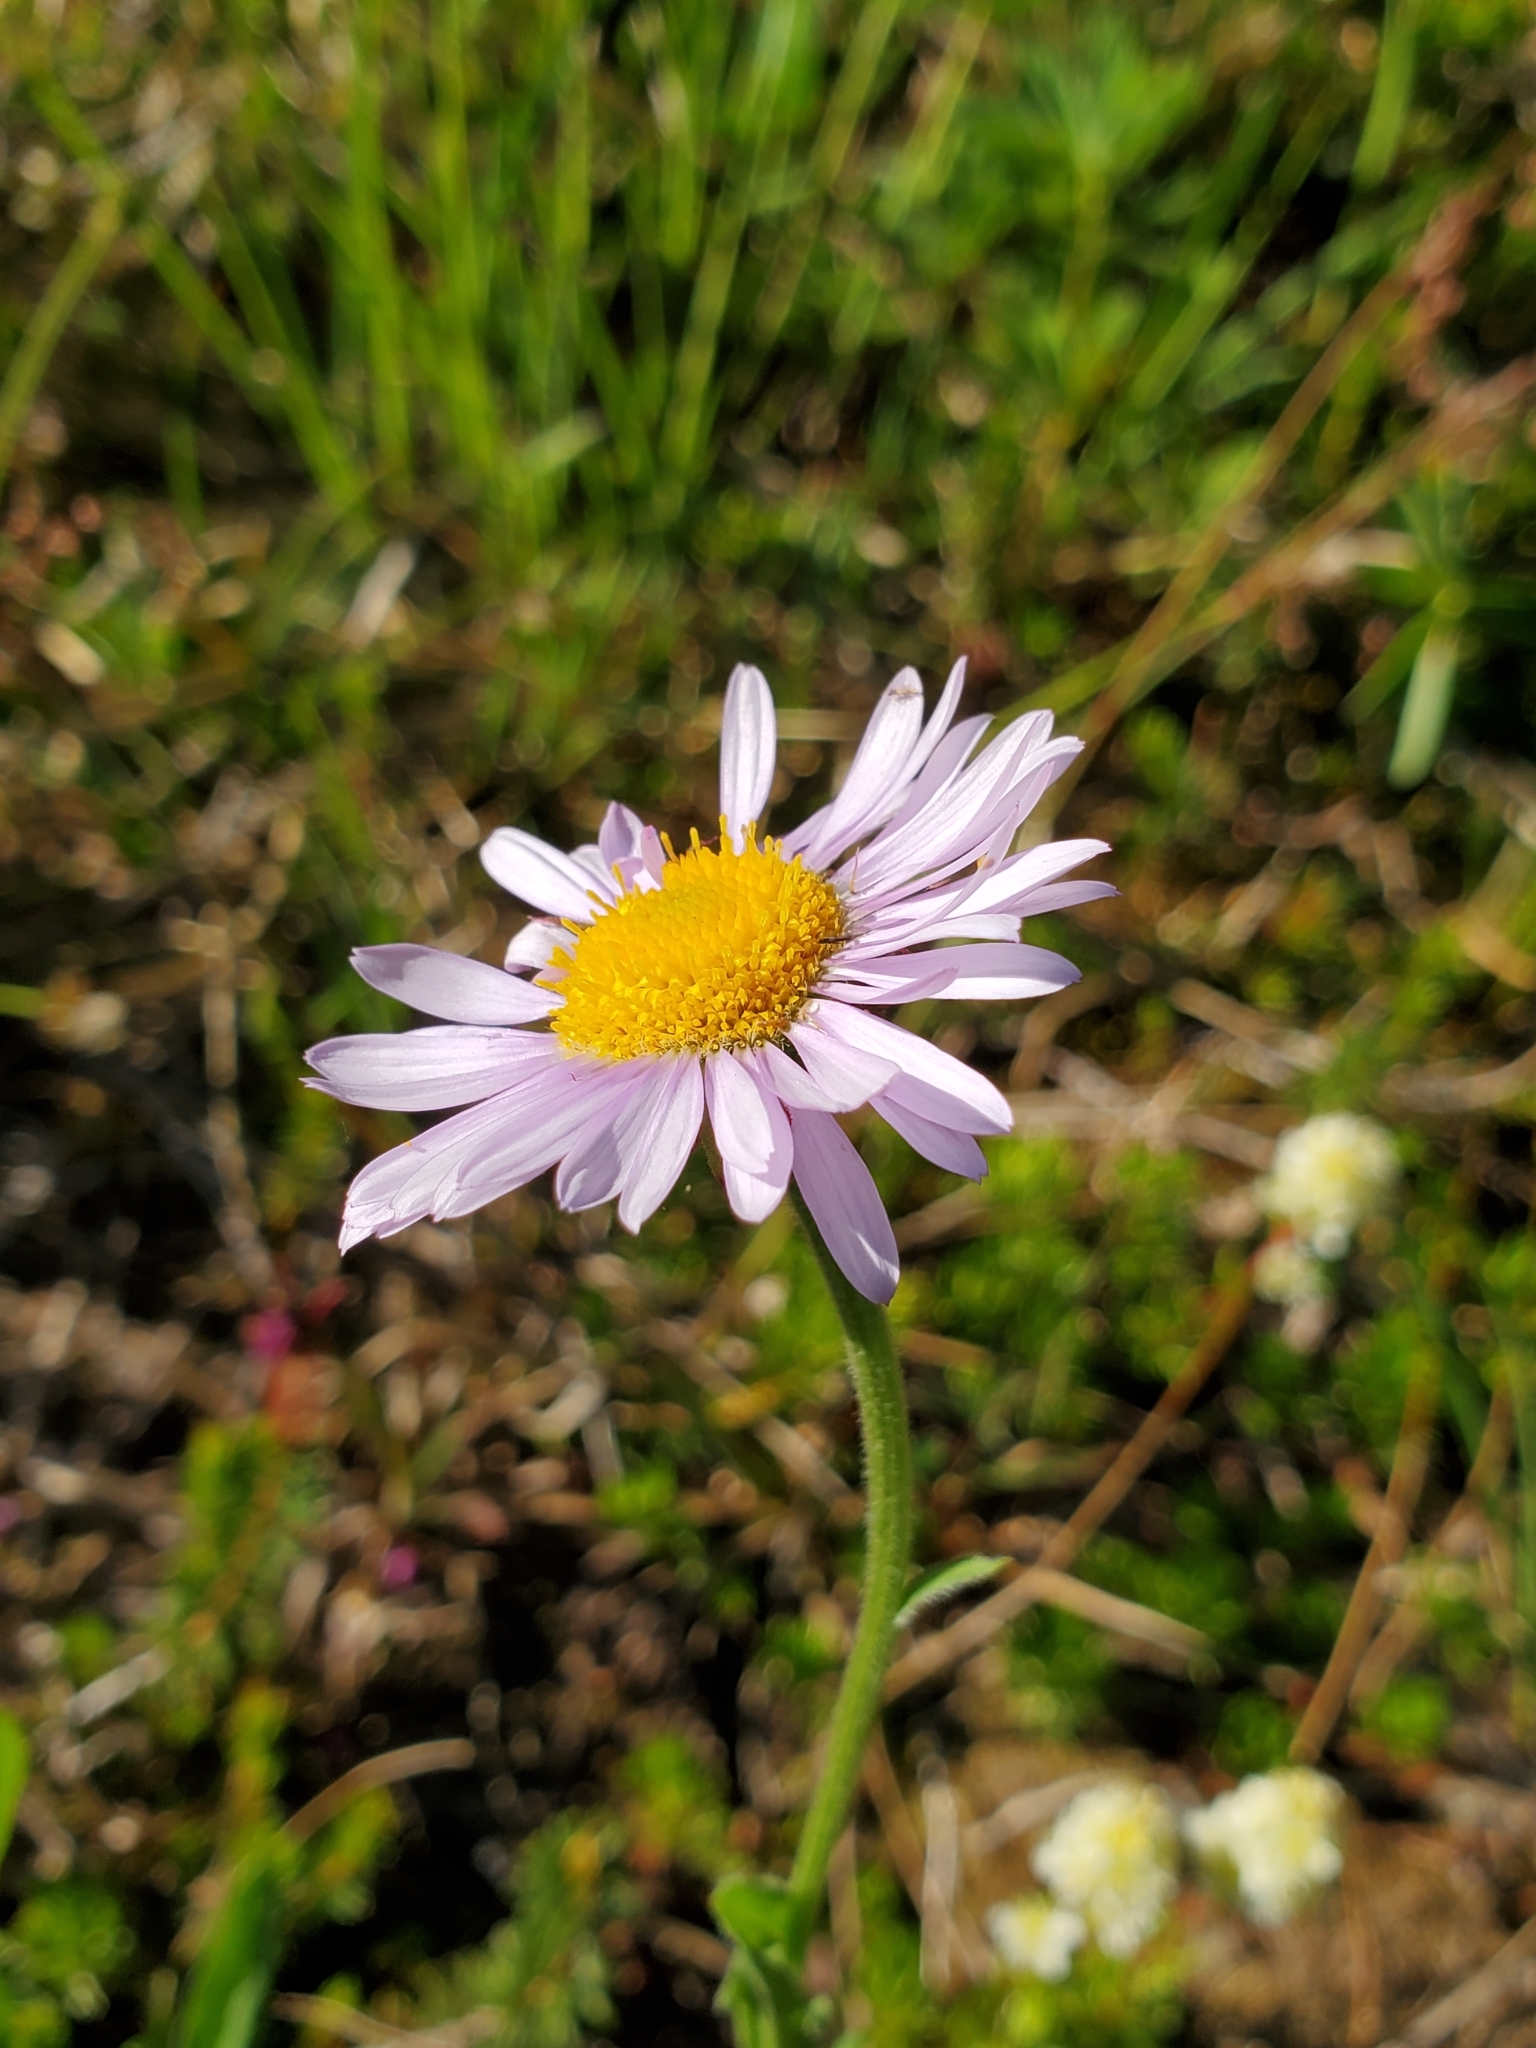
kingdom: Plantae
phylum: Tracheophyta
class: Magnoliopsida
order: Asterales
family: Asteraceae
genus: Erigeron
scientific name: Erigeron glacialis
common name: Subalpine fleabane
